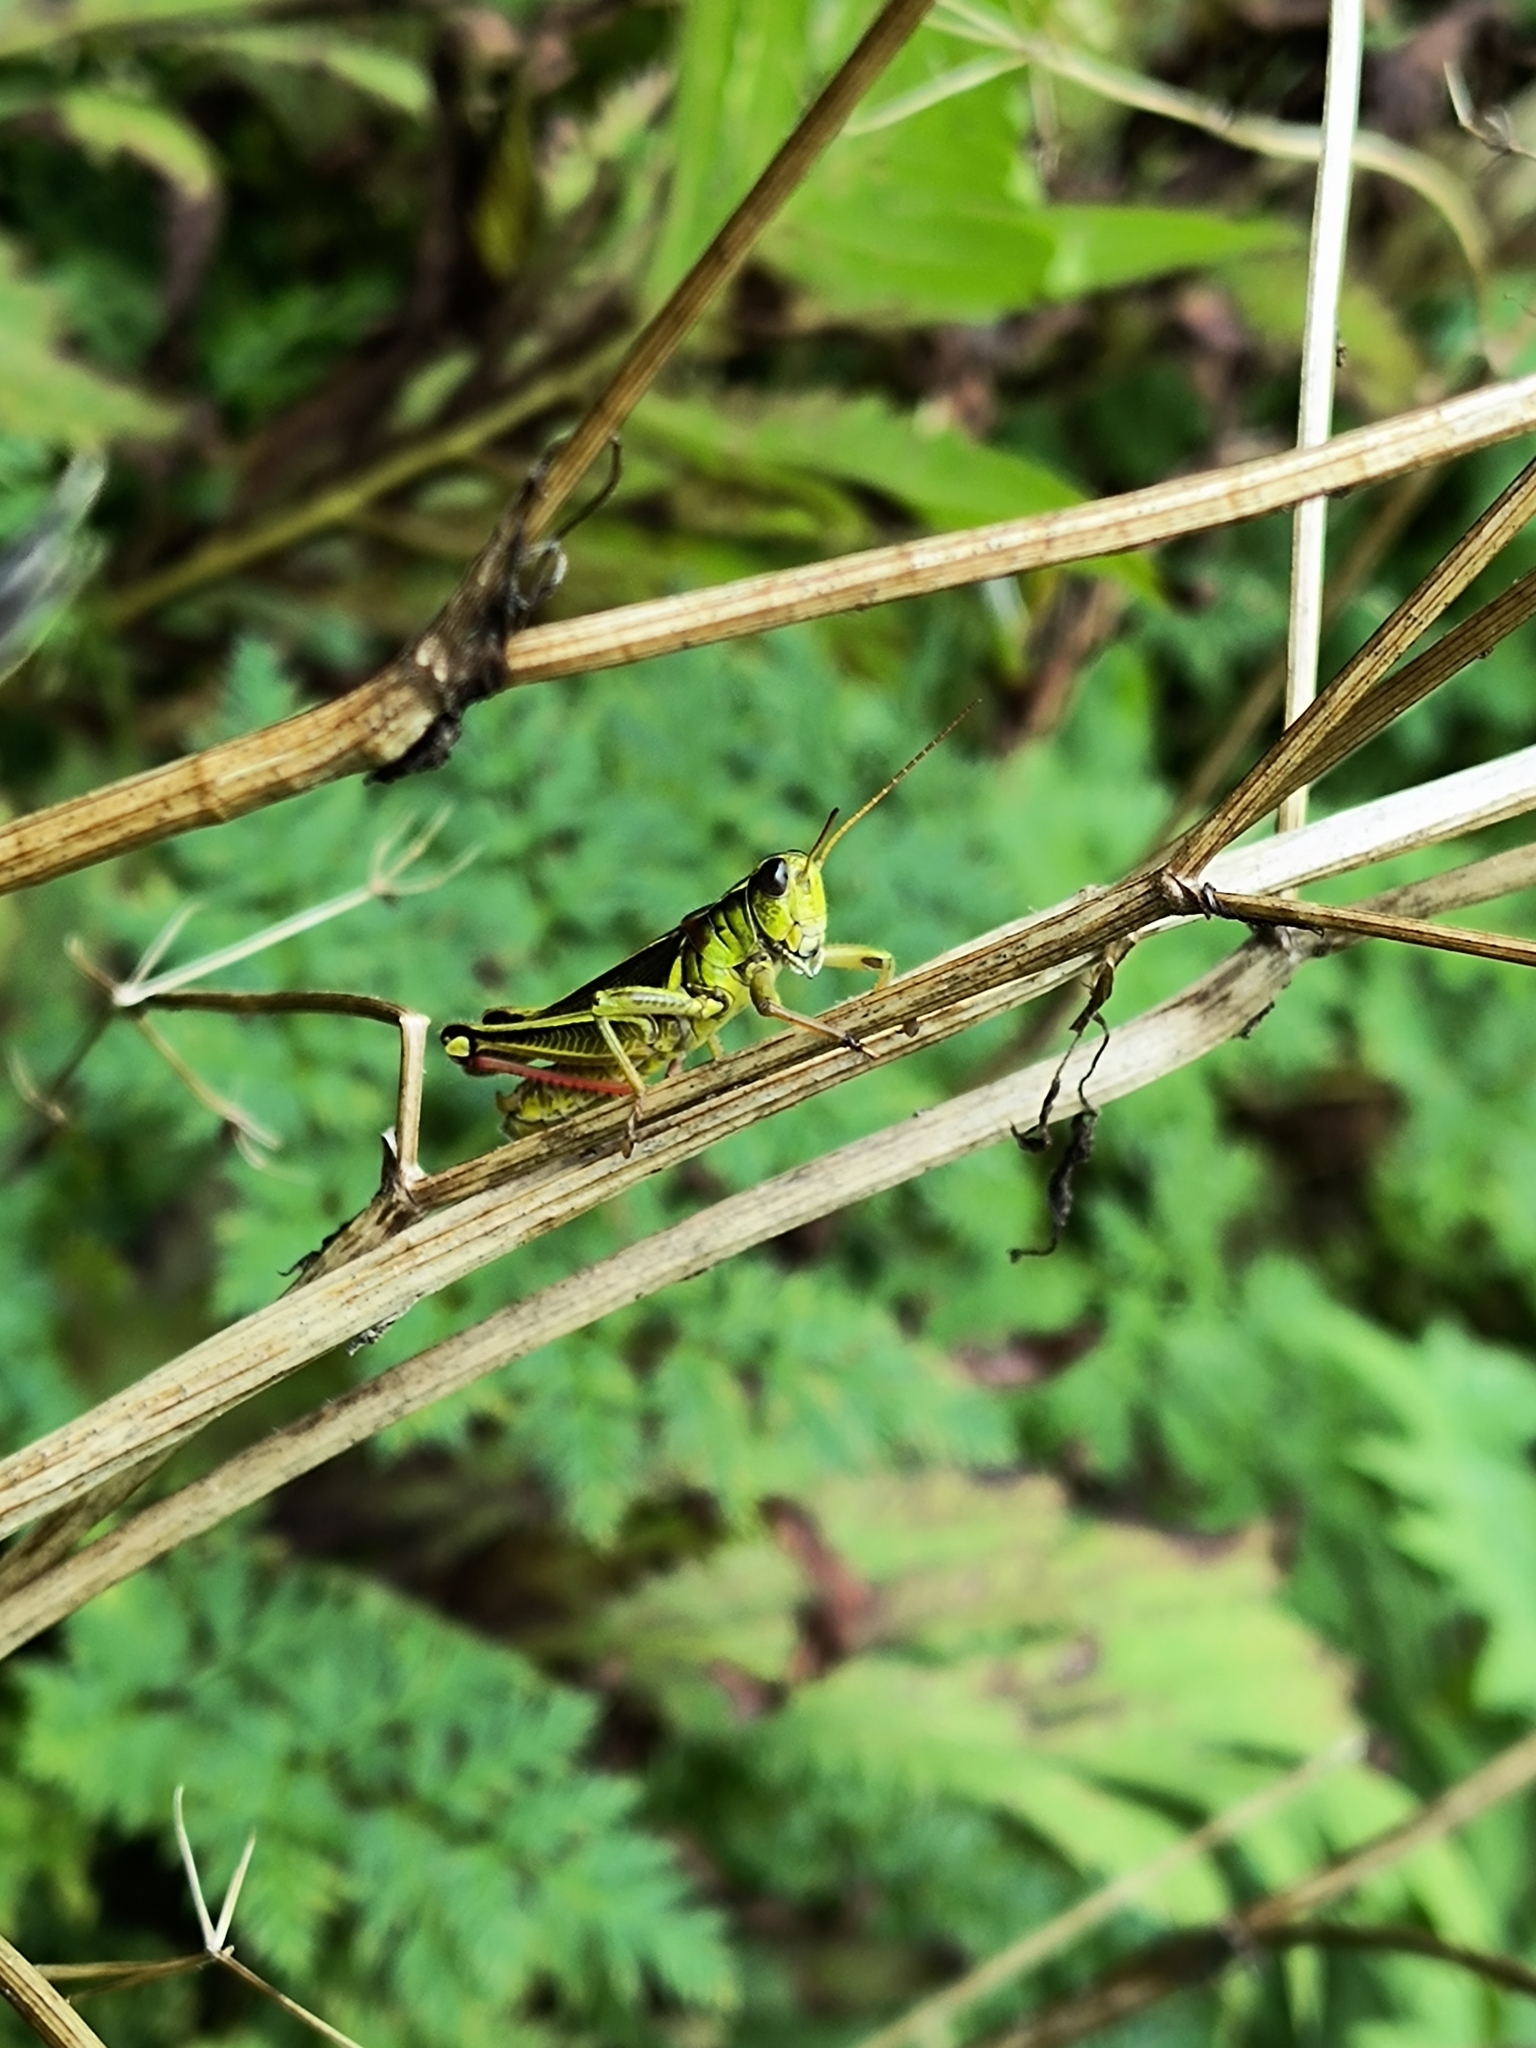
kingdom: Animalia
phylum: Arthropoda
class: Insecta
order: Orthoptera
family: Acrididae
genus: Melanoplus
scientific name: Melanoplus bivittatus
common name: Two-striped grasshopper
